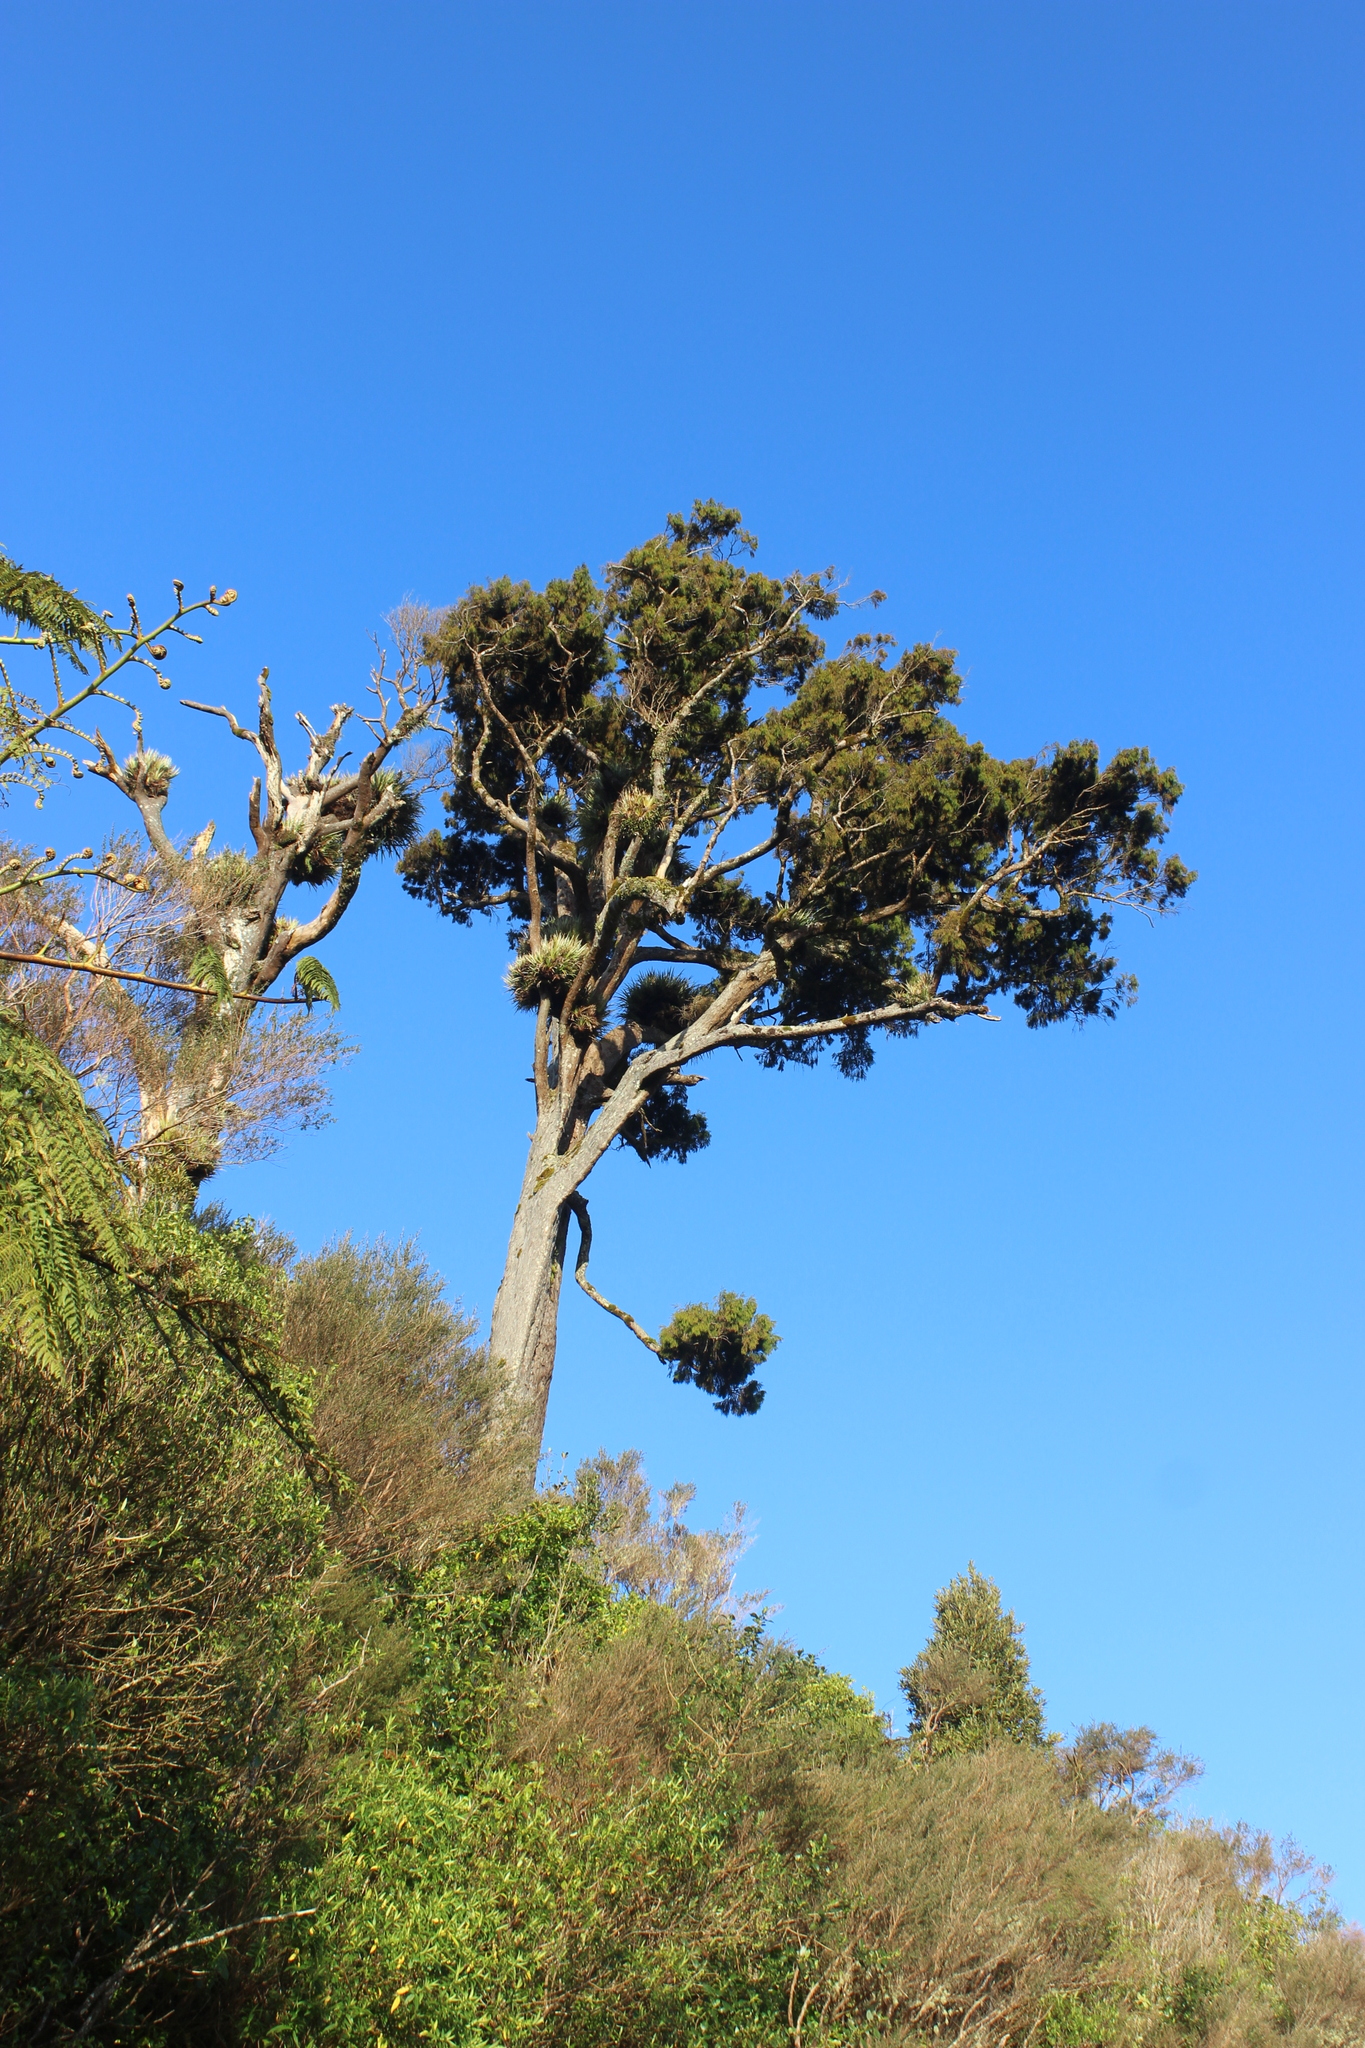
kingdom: Plantae
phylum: Tracheophyta
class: Pinopsida
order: Pinales
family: Podocarpaceae
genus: Dacrydium
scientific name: Dacrydium cupressinum
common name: Red pine
